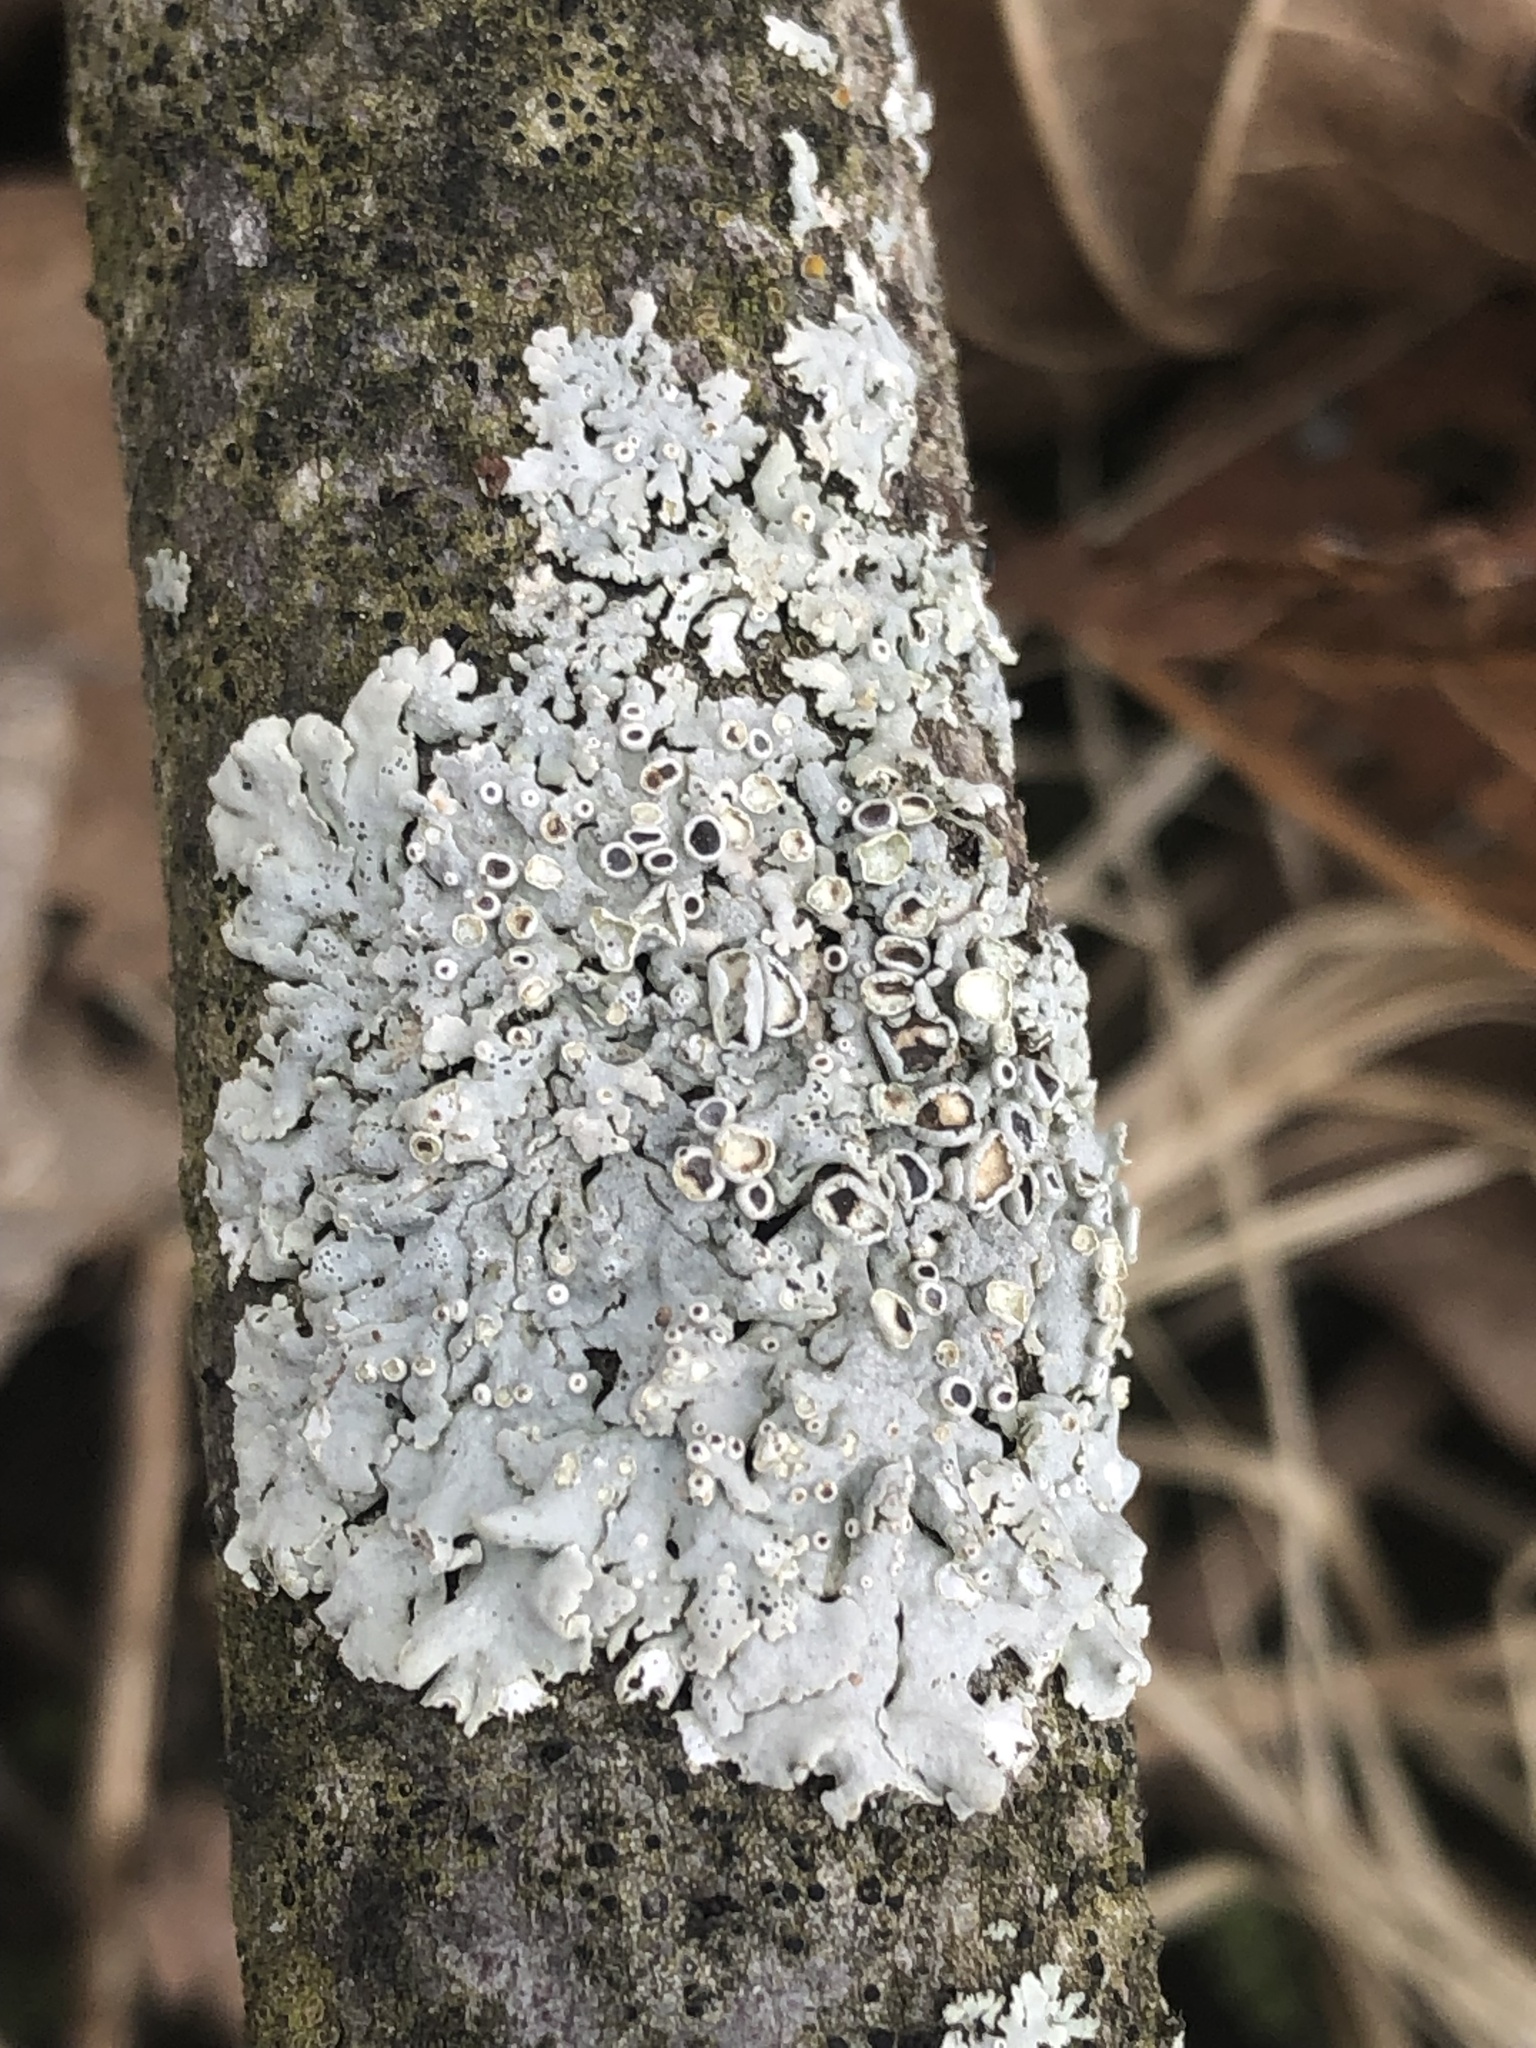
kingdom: Fungi
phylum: Ascomycota
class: Lecanoromycetes
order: Caliciales
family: Physciaceae
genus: Physcia
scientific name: Physcia stellaris
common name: Star rosette lichen
